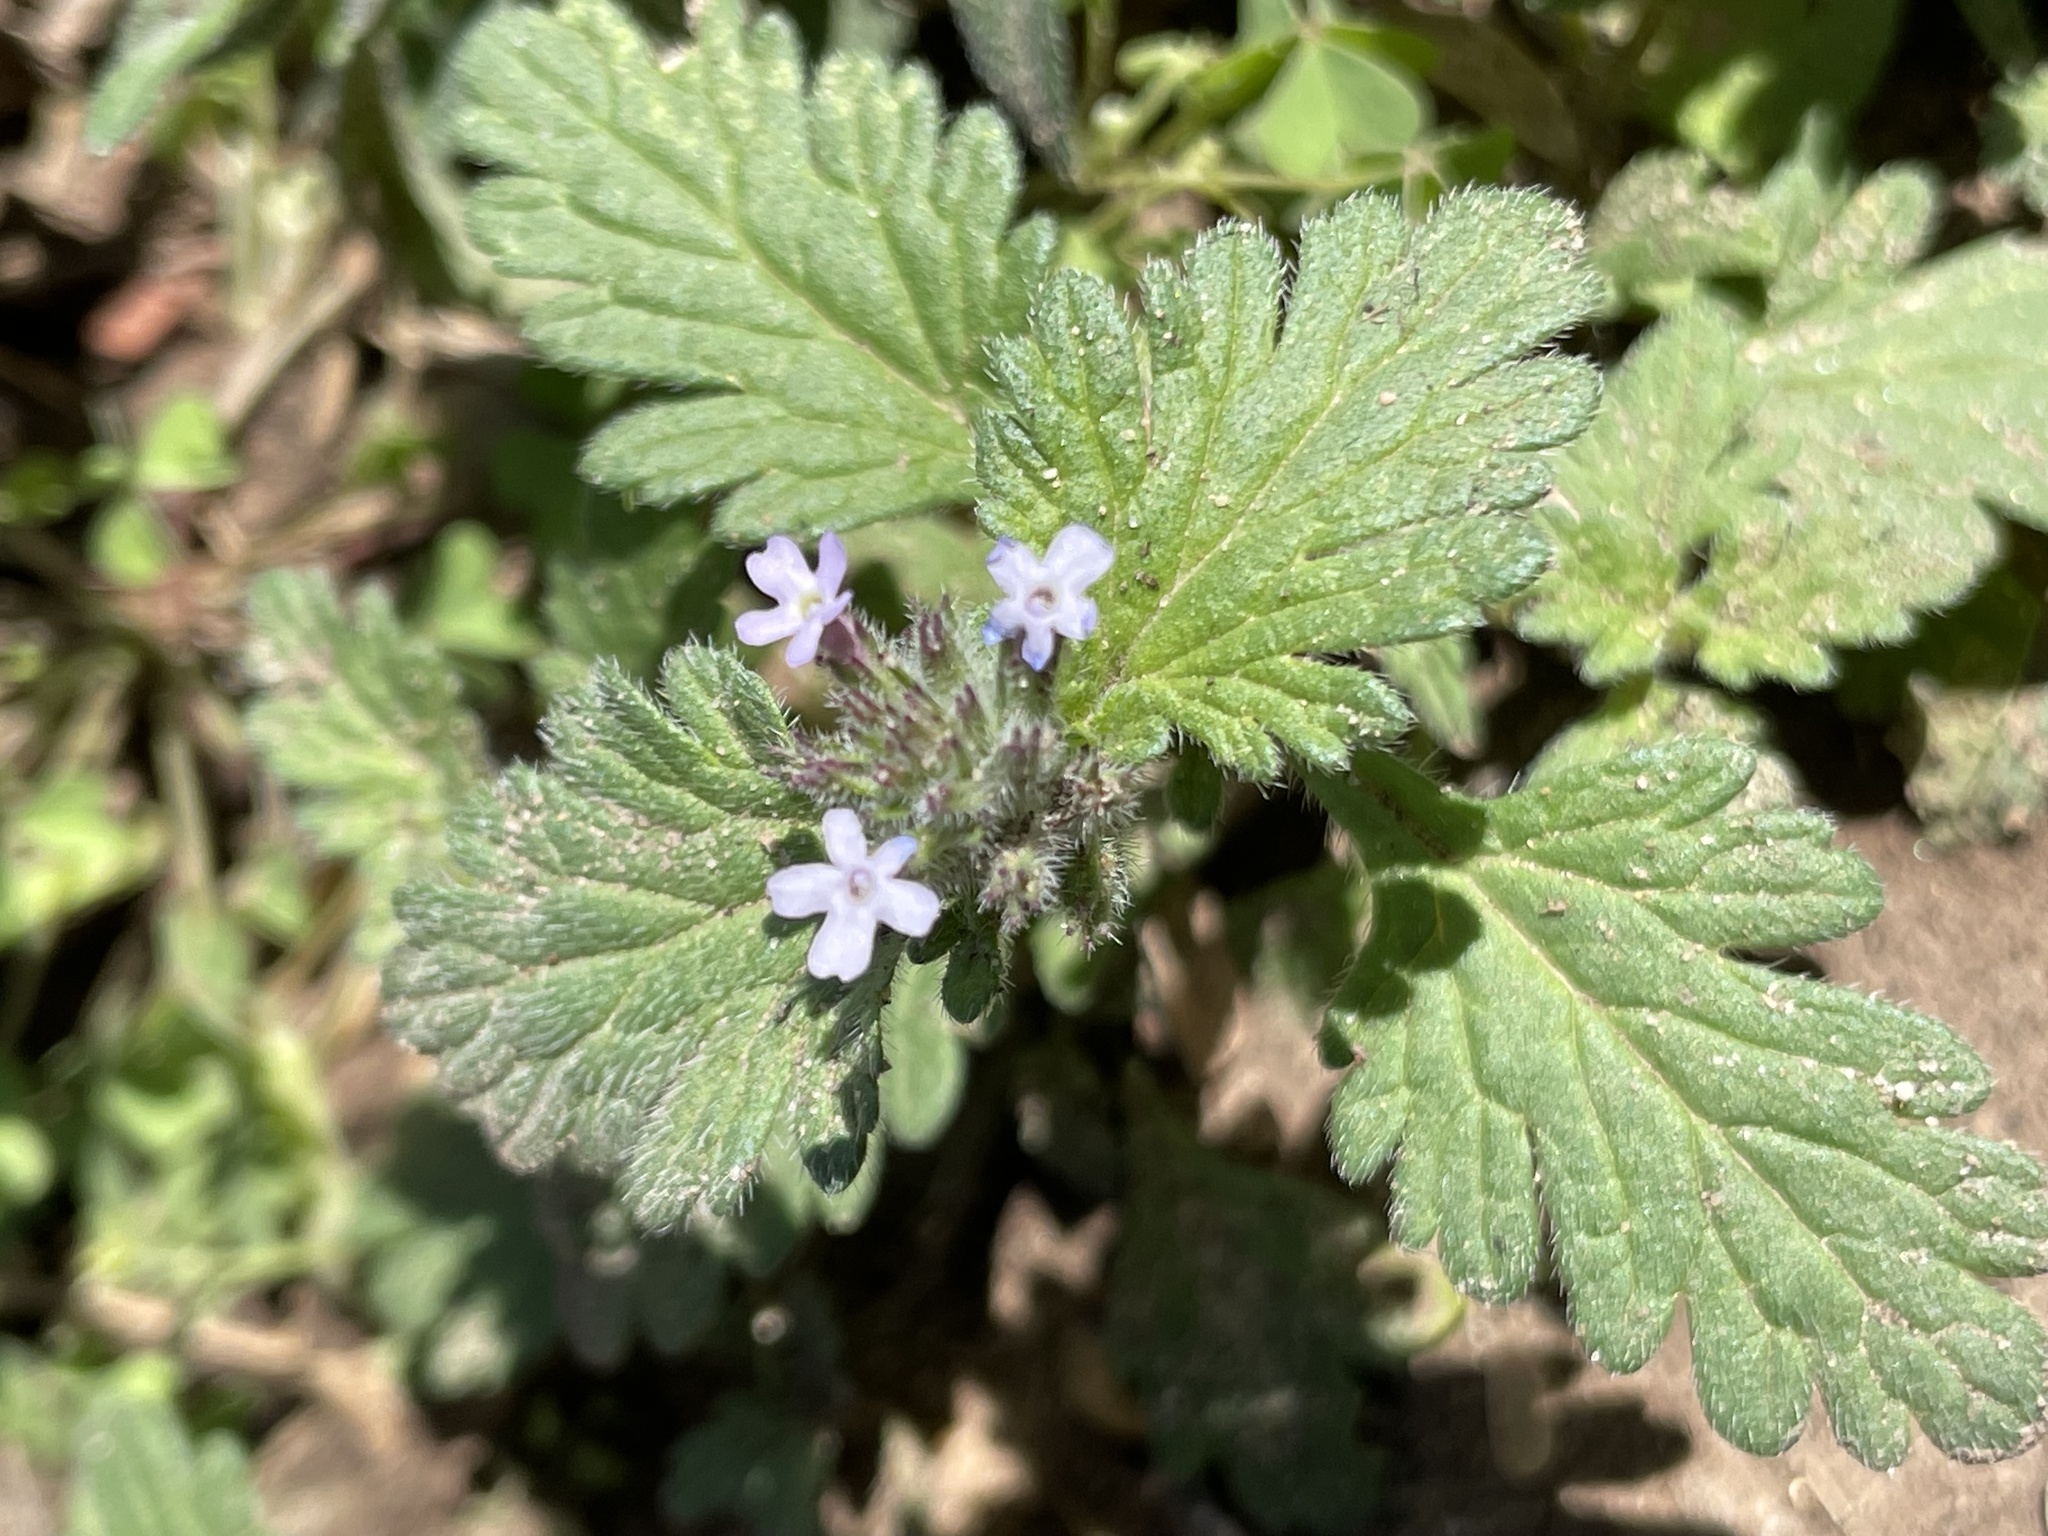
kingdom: Plantae
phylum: Tracheophyta
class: Magnoliopsida
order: Lamiales
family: Verbenaceae
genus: Verbena
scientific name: Verbena quadrangulata
